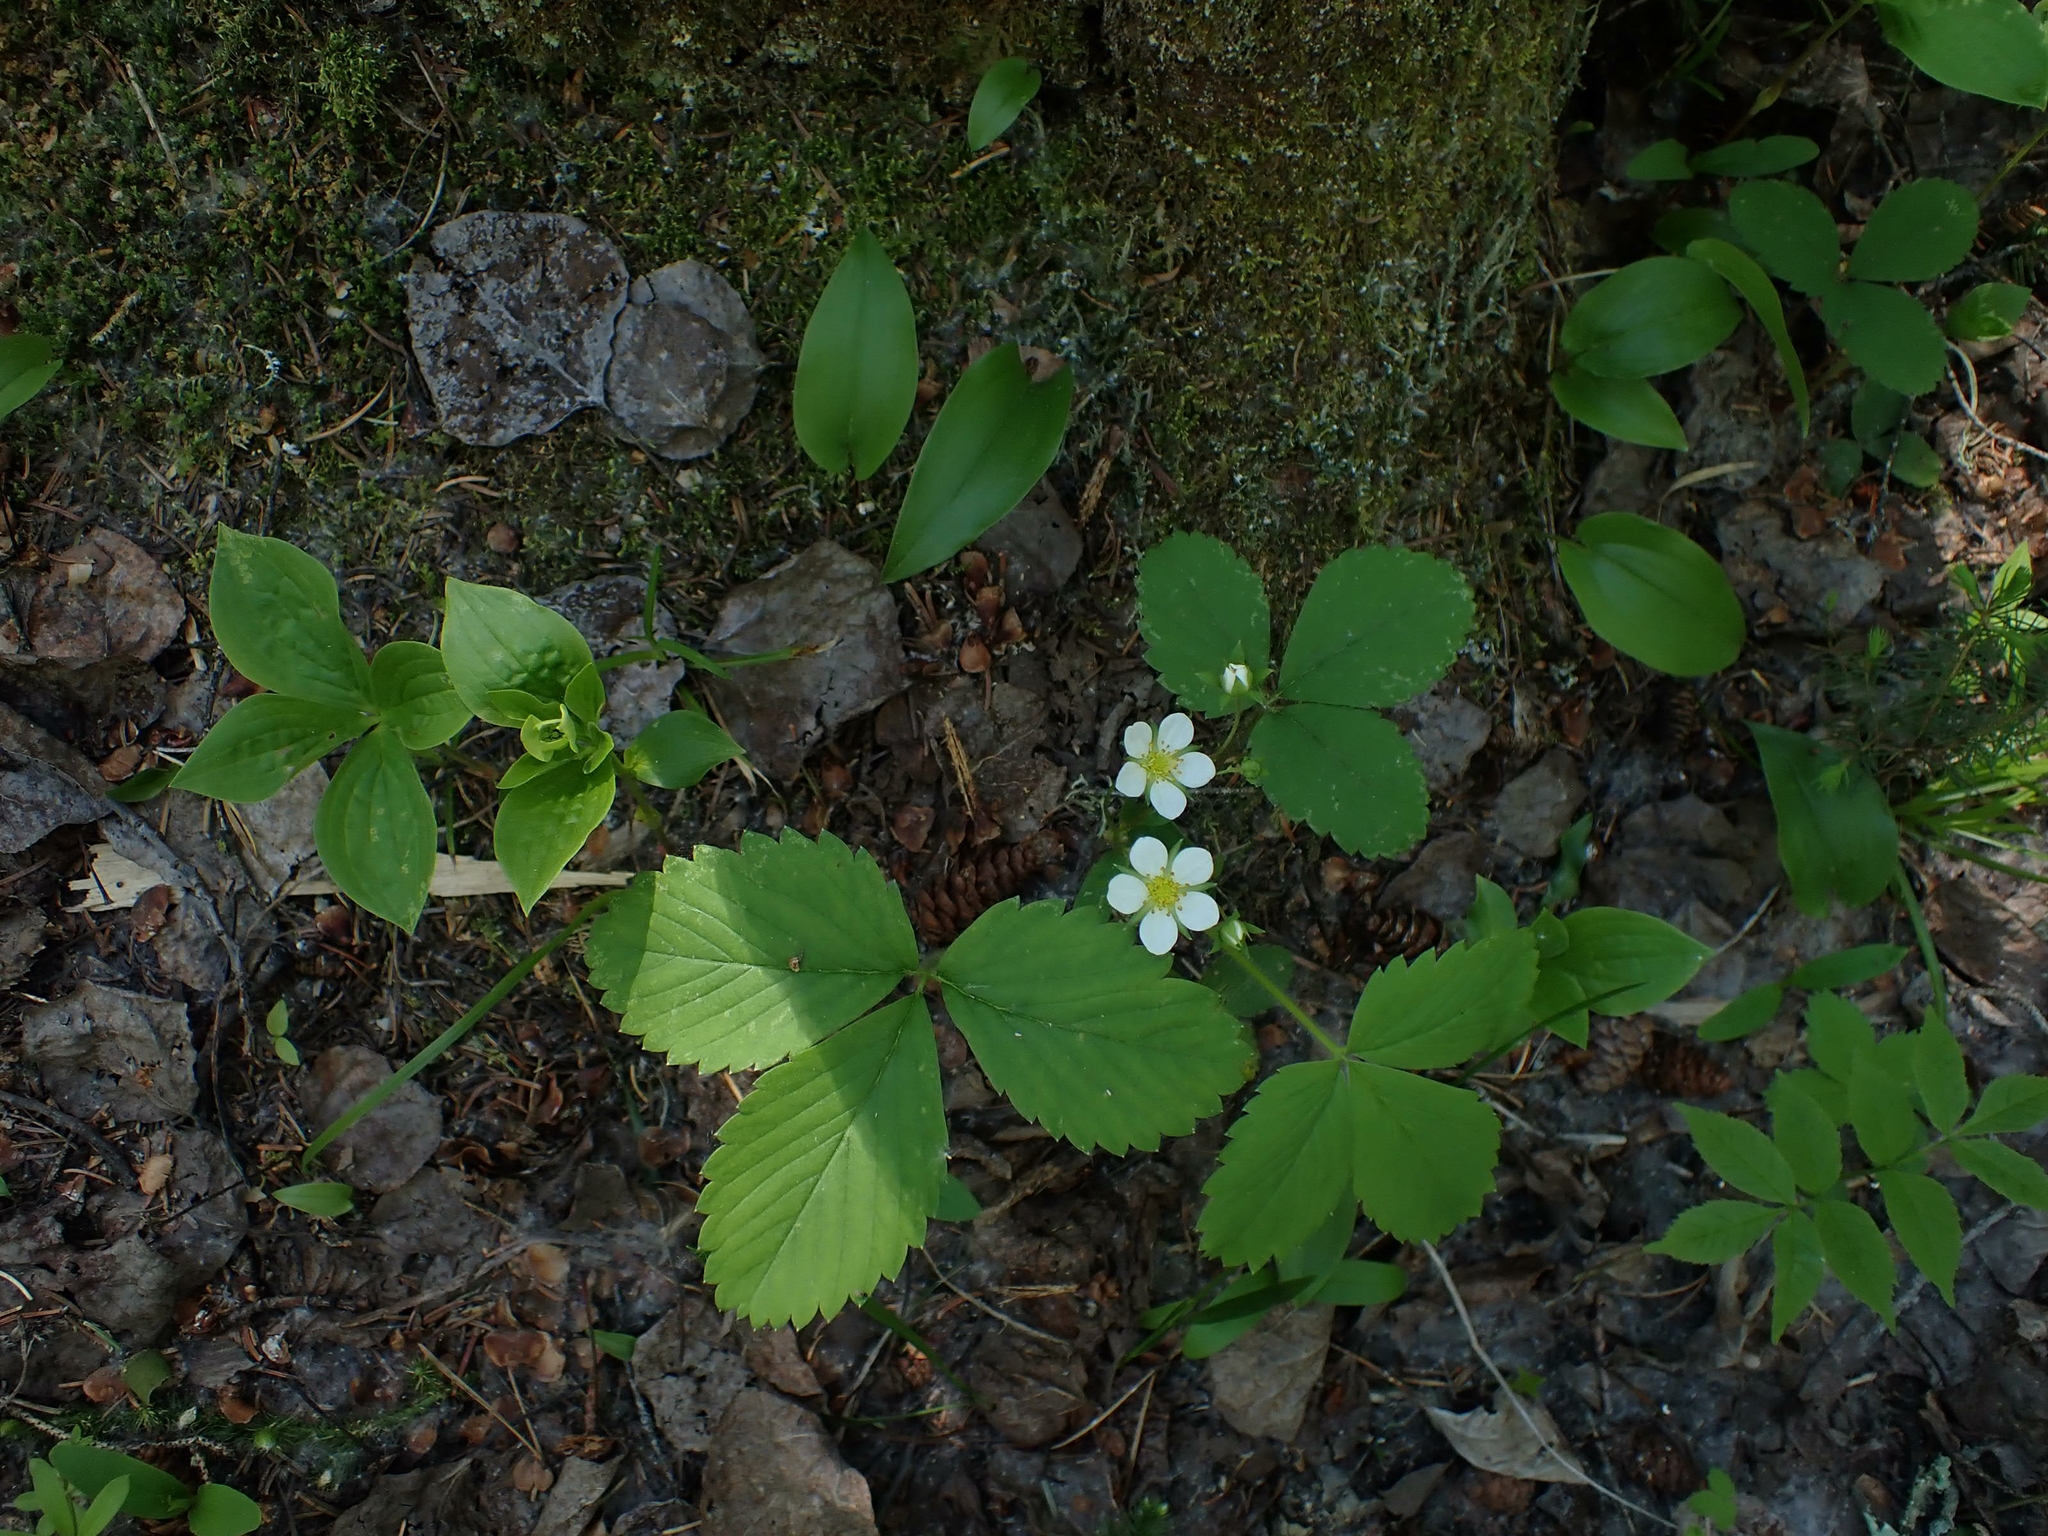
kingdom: Plantae
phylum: Tracheophyta
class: Magnoliopsida
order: Rosales
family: Rosaceae
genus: Fragaria
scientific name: Fragaria virginiana
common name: Thickleaved wild strawberry
